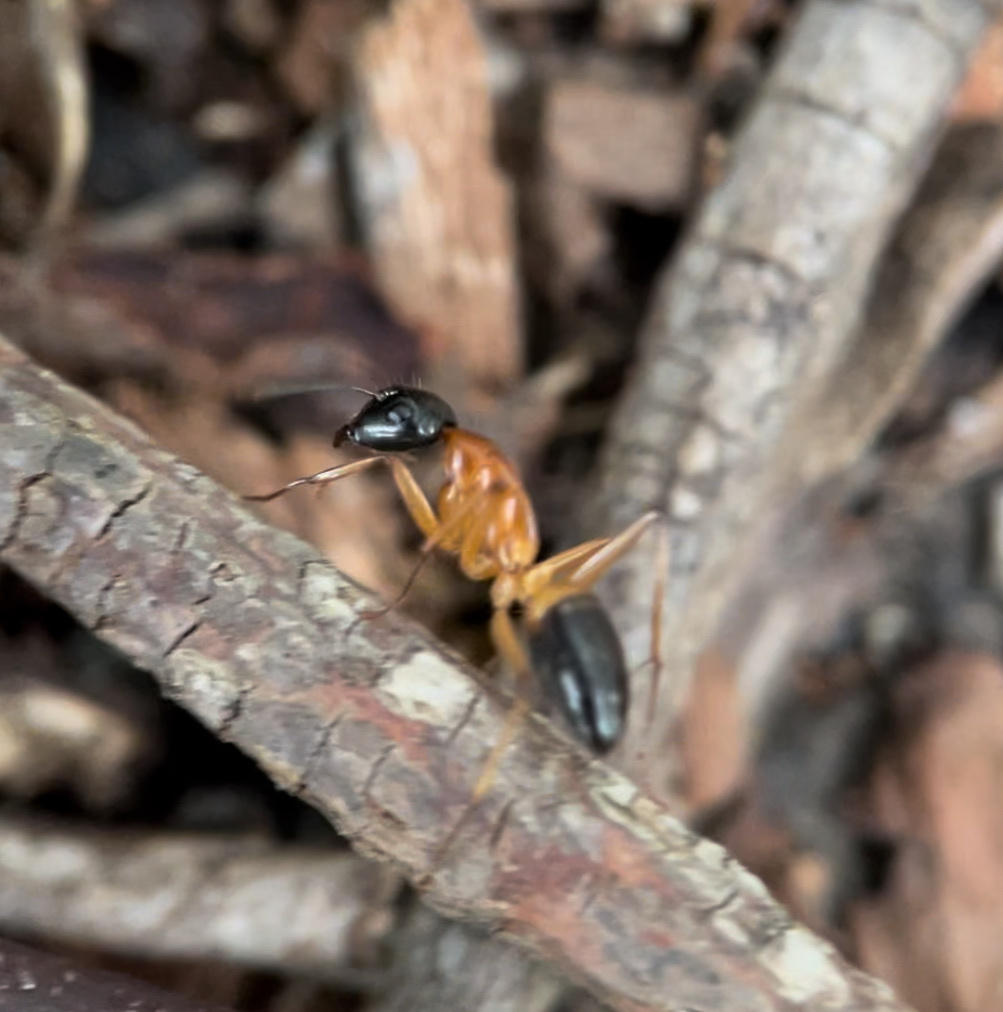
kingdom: Animalia
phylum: Arthropoda
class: Insecta
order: Hymenoptera
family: Formicidae
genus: Camponotus
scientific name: Camponotus consobrinus
